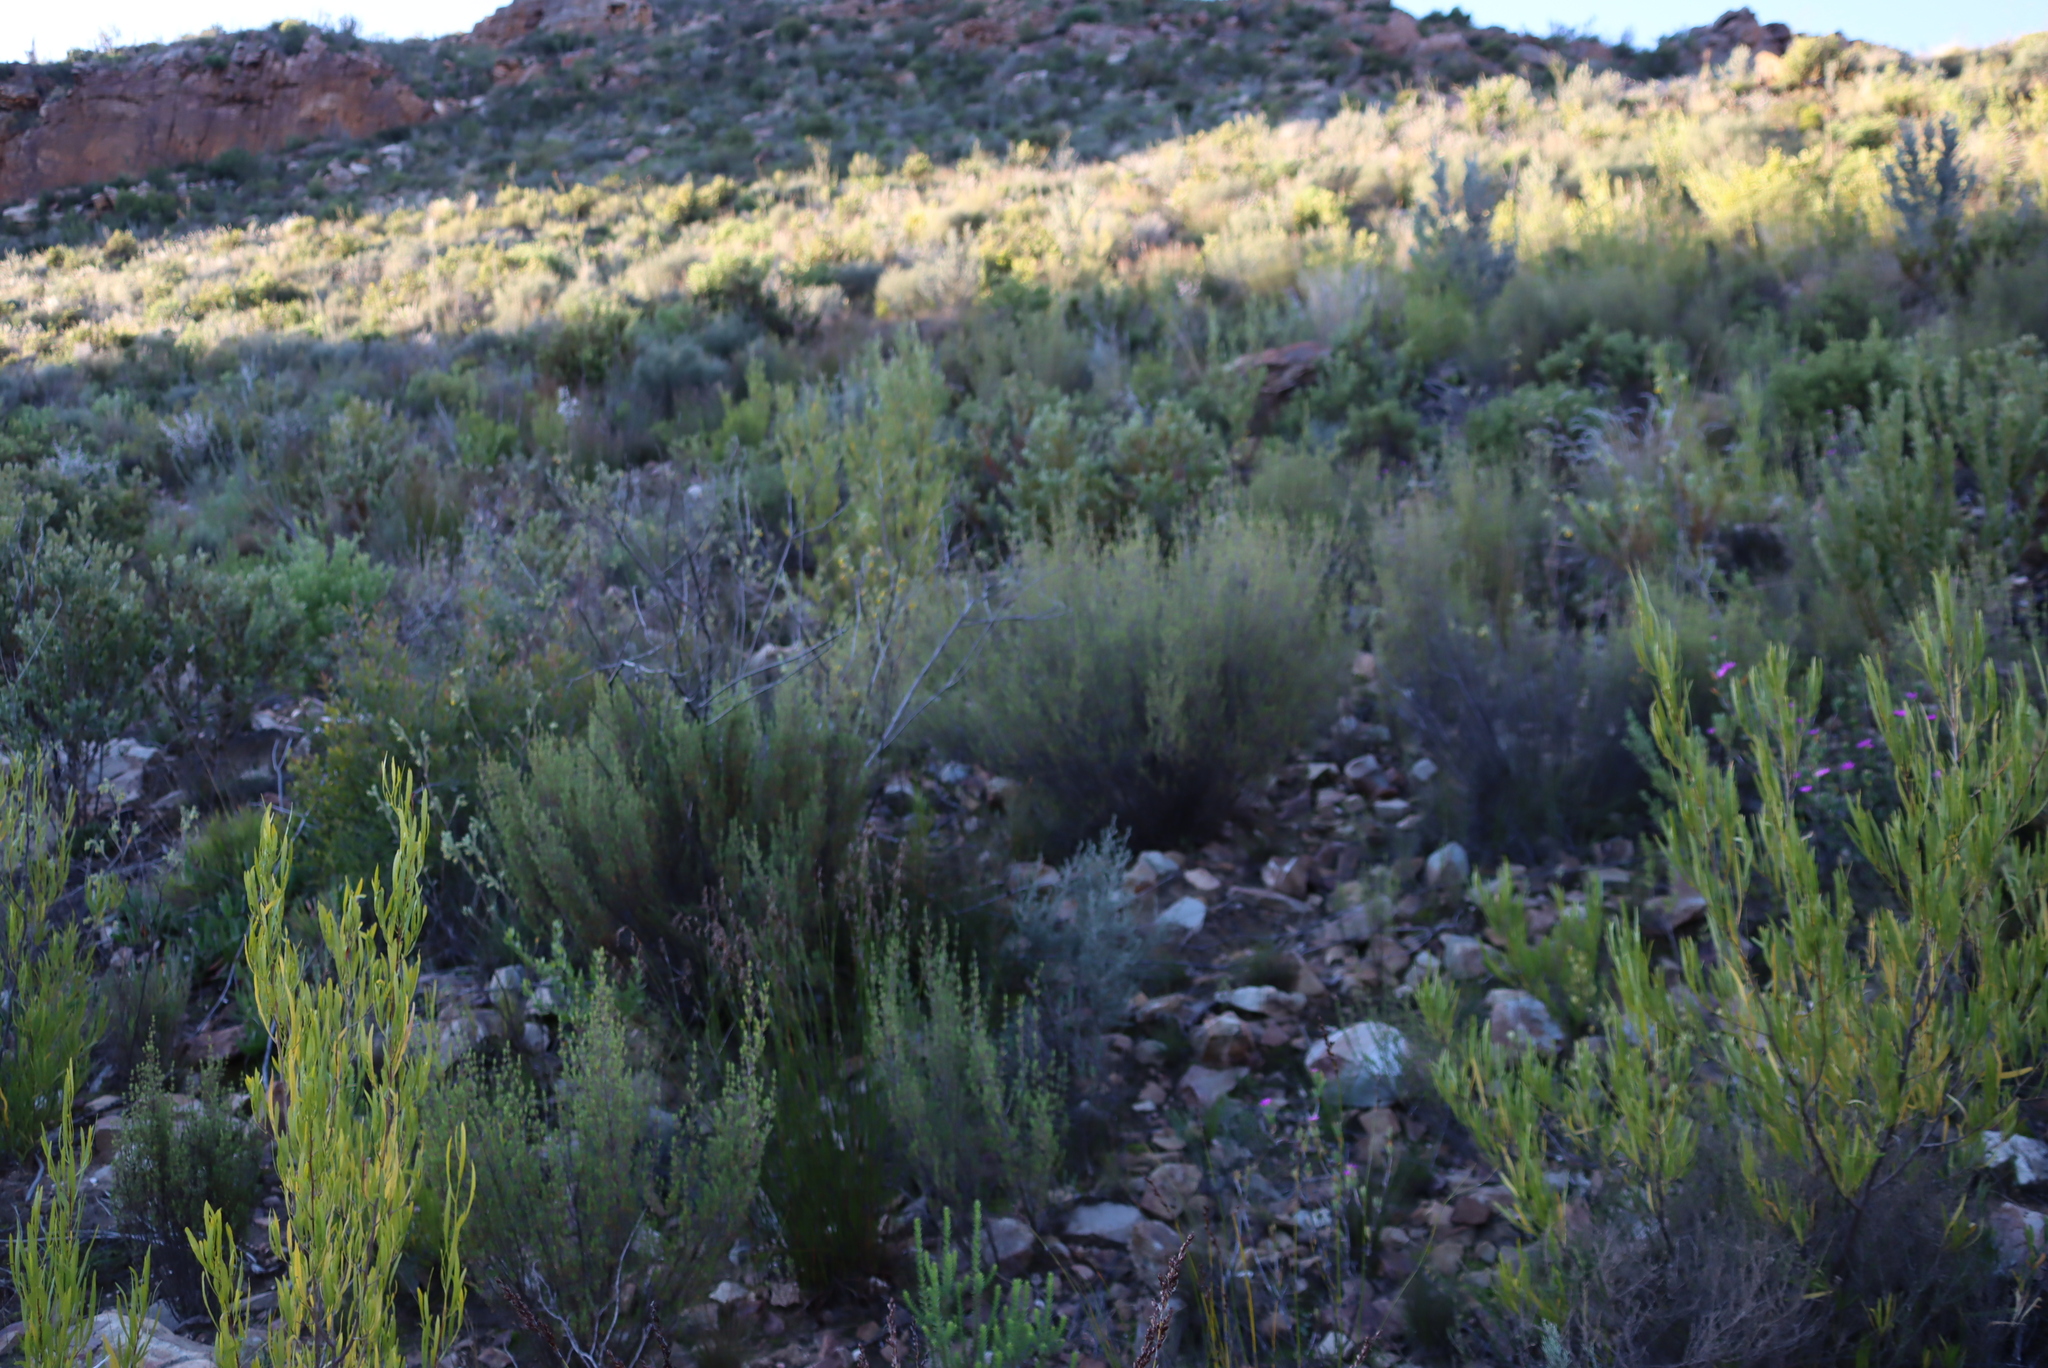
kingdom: Plantae
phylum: Tracheophyta
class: Magnoliopsida
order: Gentianales
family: Rubiaceae
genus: Anthospermum
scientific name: Anthospermum spathulatum
